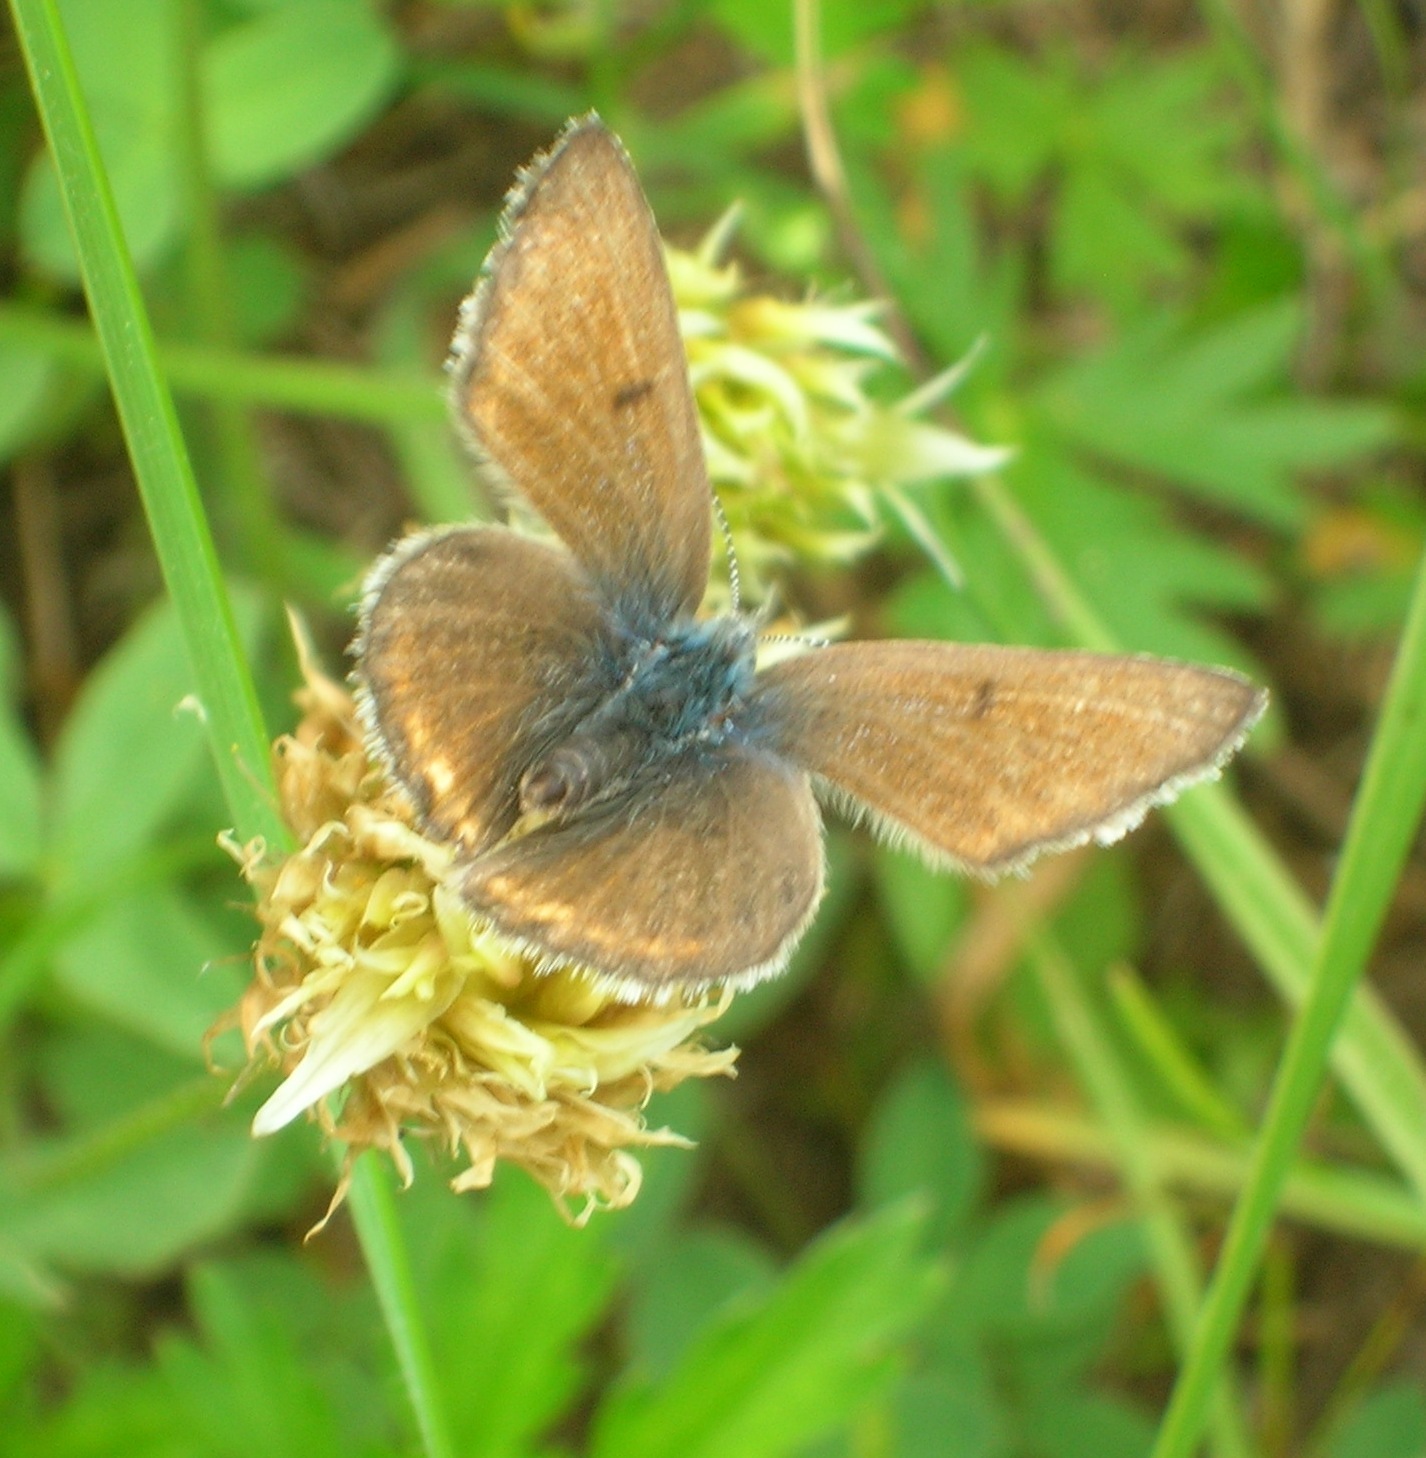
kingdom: Animalia
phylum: Arthropoda
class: Insecta
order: Lepidoptera
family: Lycaenidae
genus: Icaricia
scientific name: Icaricia saepiolus
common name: Greenish blue
